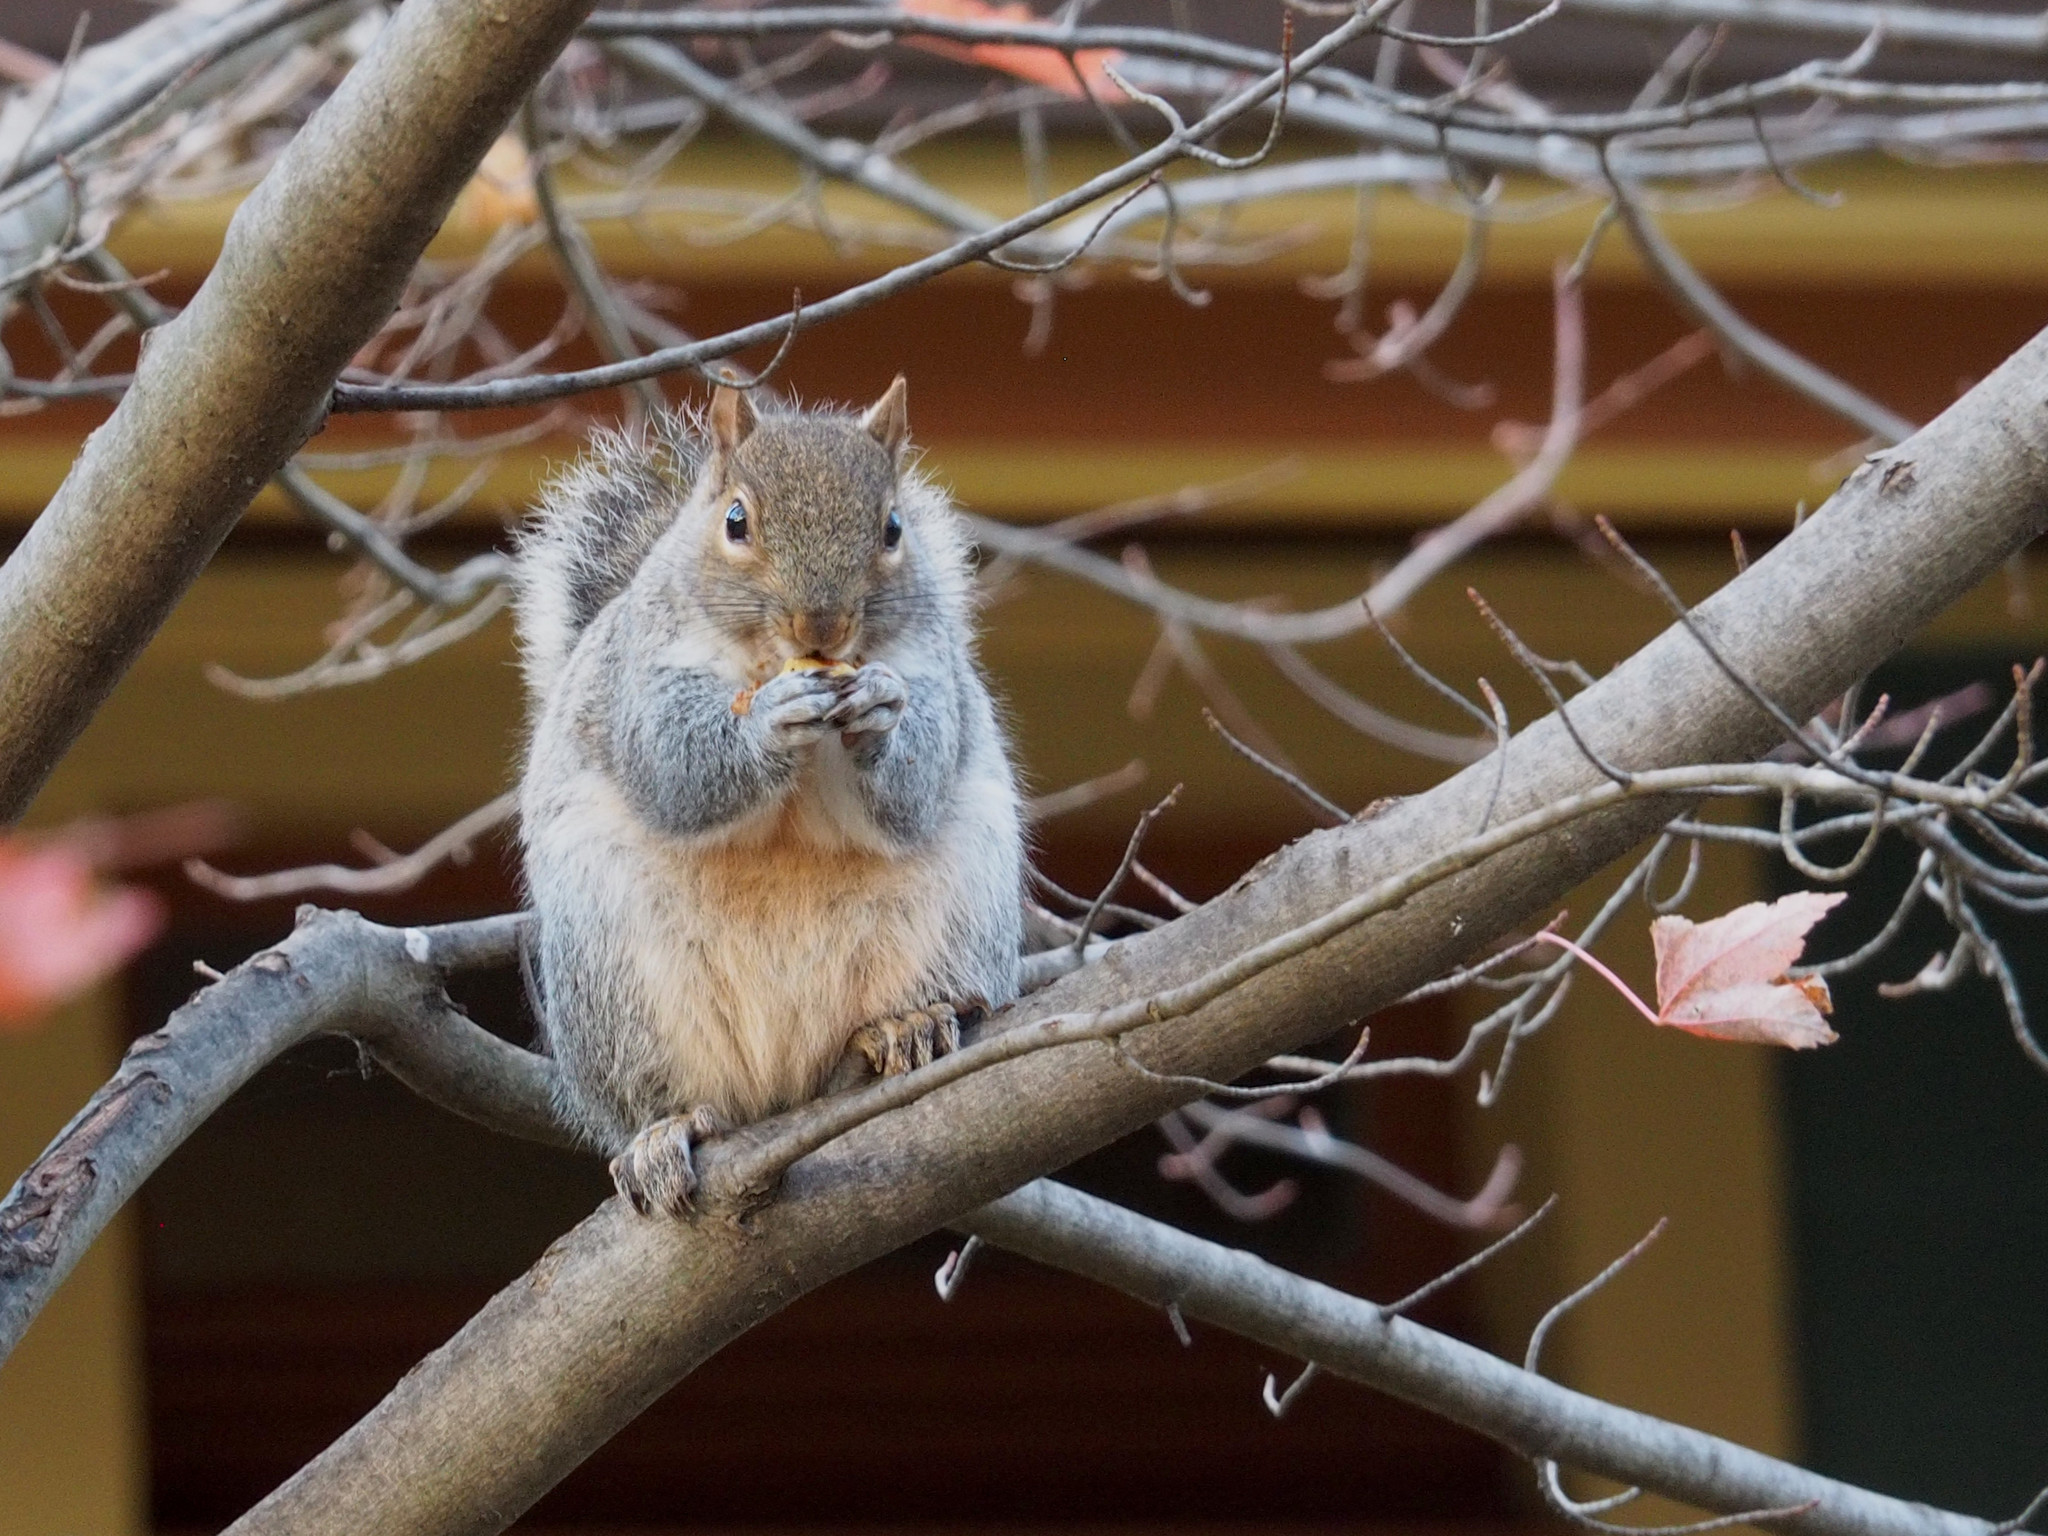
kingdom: Animalia
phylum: Chordata
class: Mammalia
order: Rodentia
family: Sciuridae
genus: Sciurus
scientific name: Sciurus carolinensis
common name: Eastern gray squirrel
